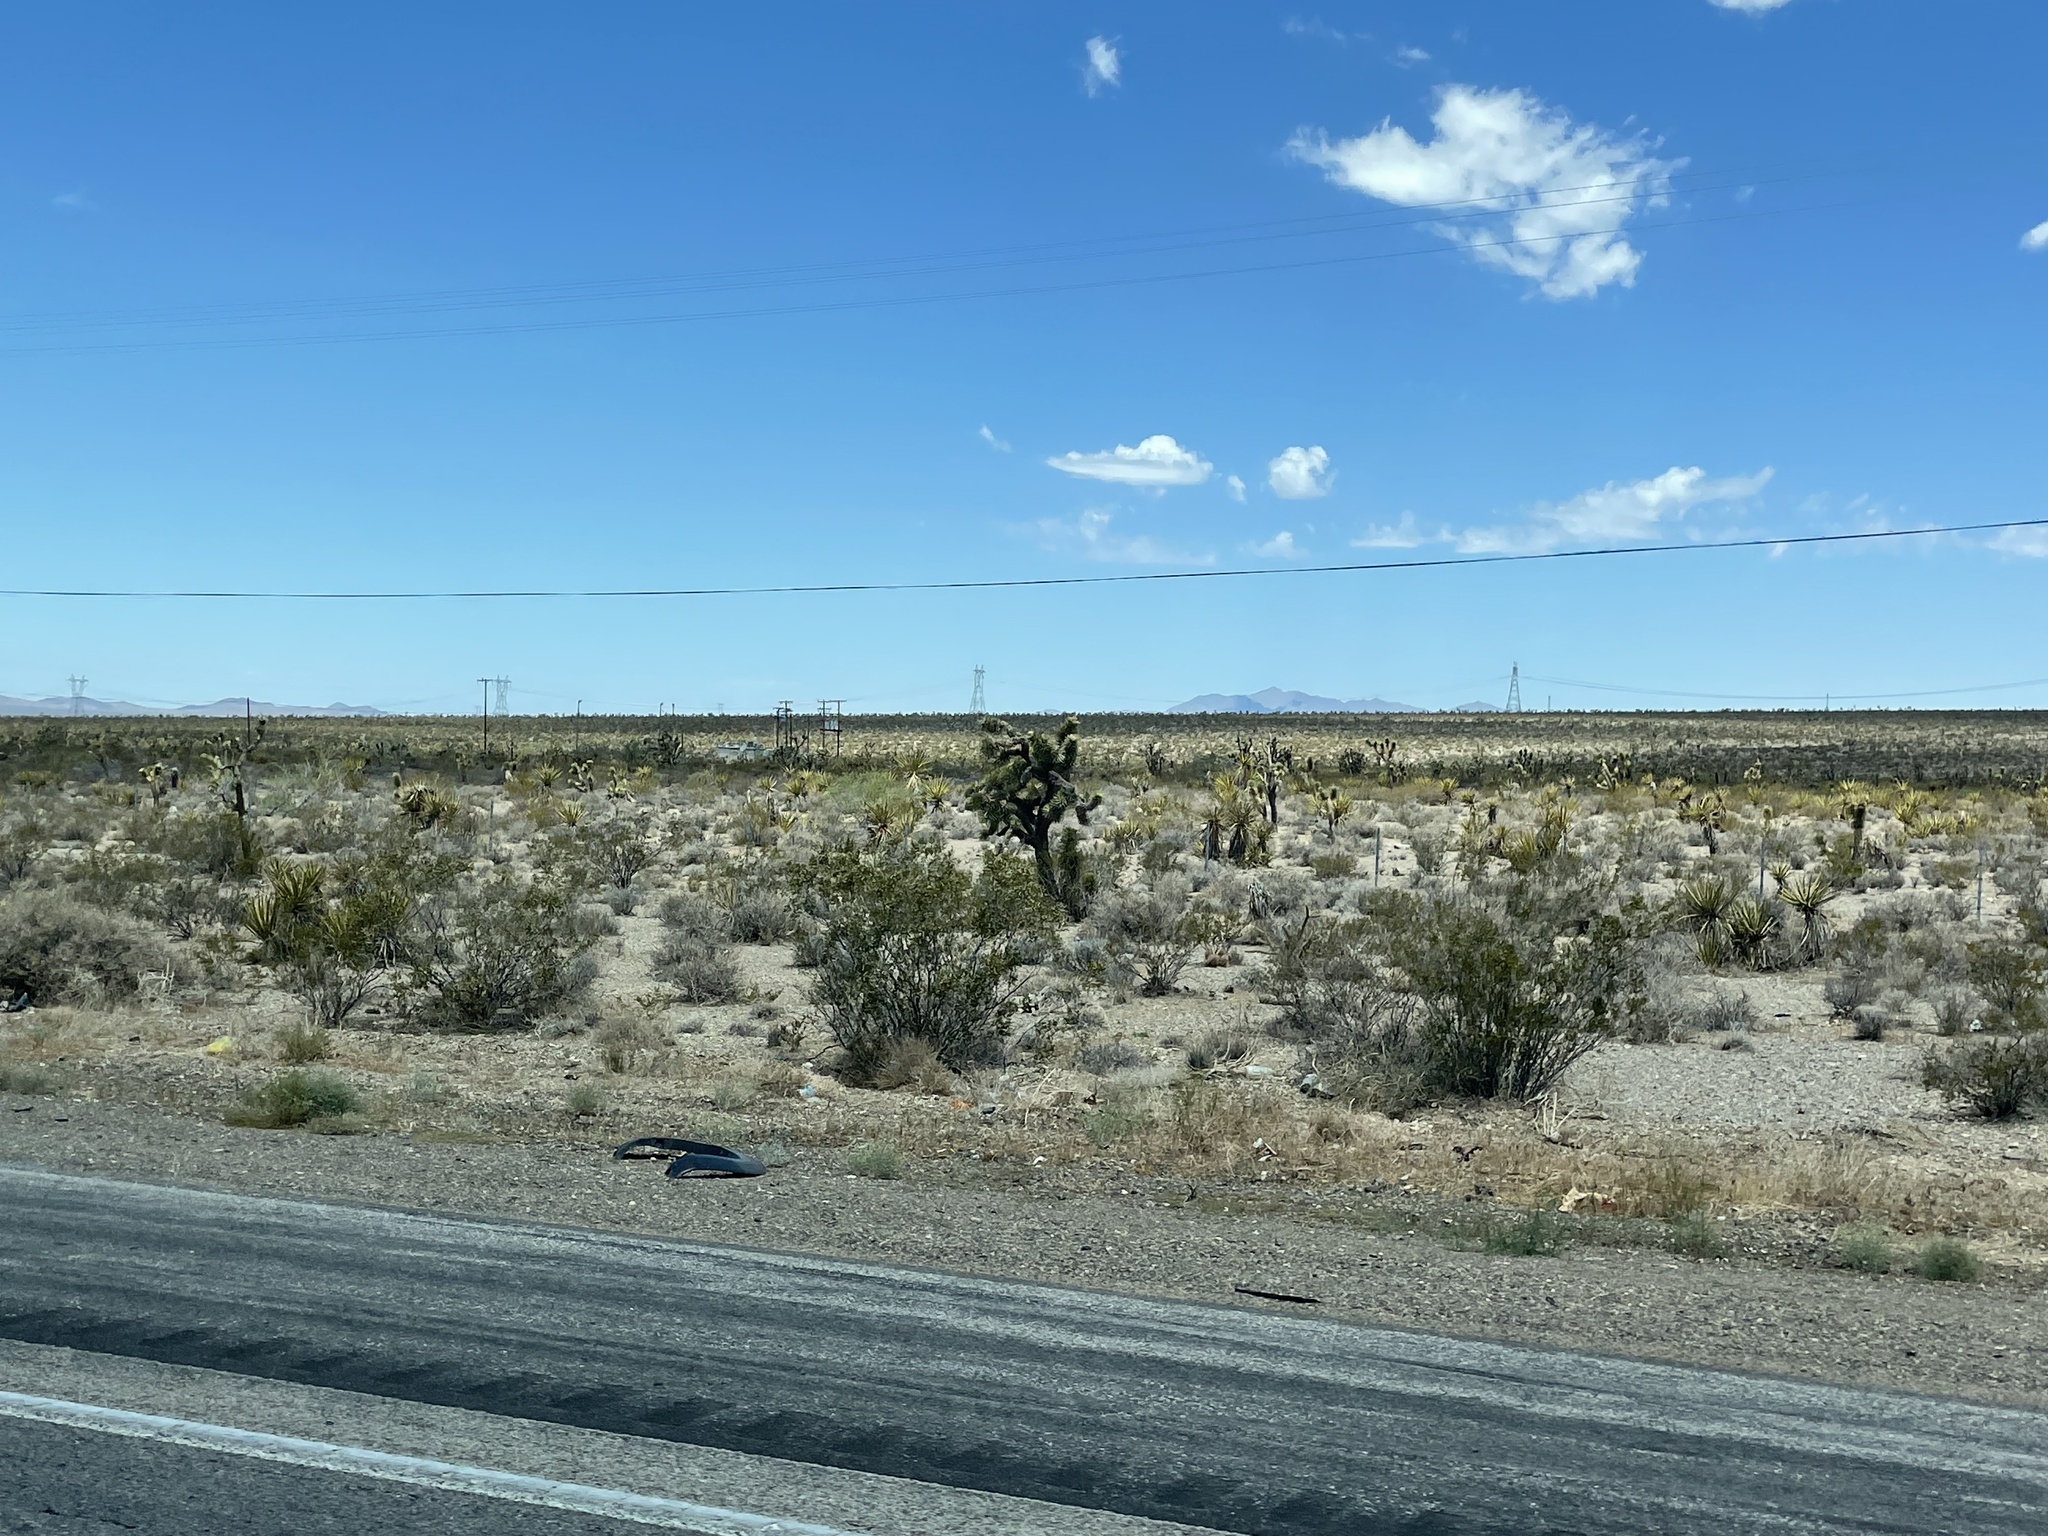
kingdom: Plantae
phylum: Tracheophyta
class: Magnoliopsida
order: Zygophyllales
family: Zygophyllaceae
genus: Larrea
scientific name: Larrea tridentata
